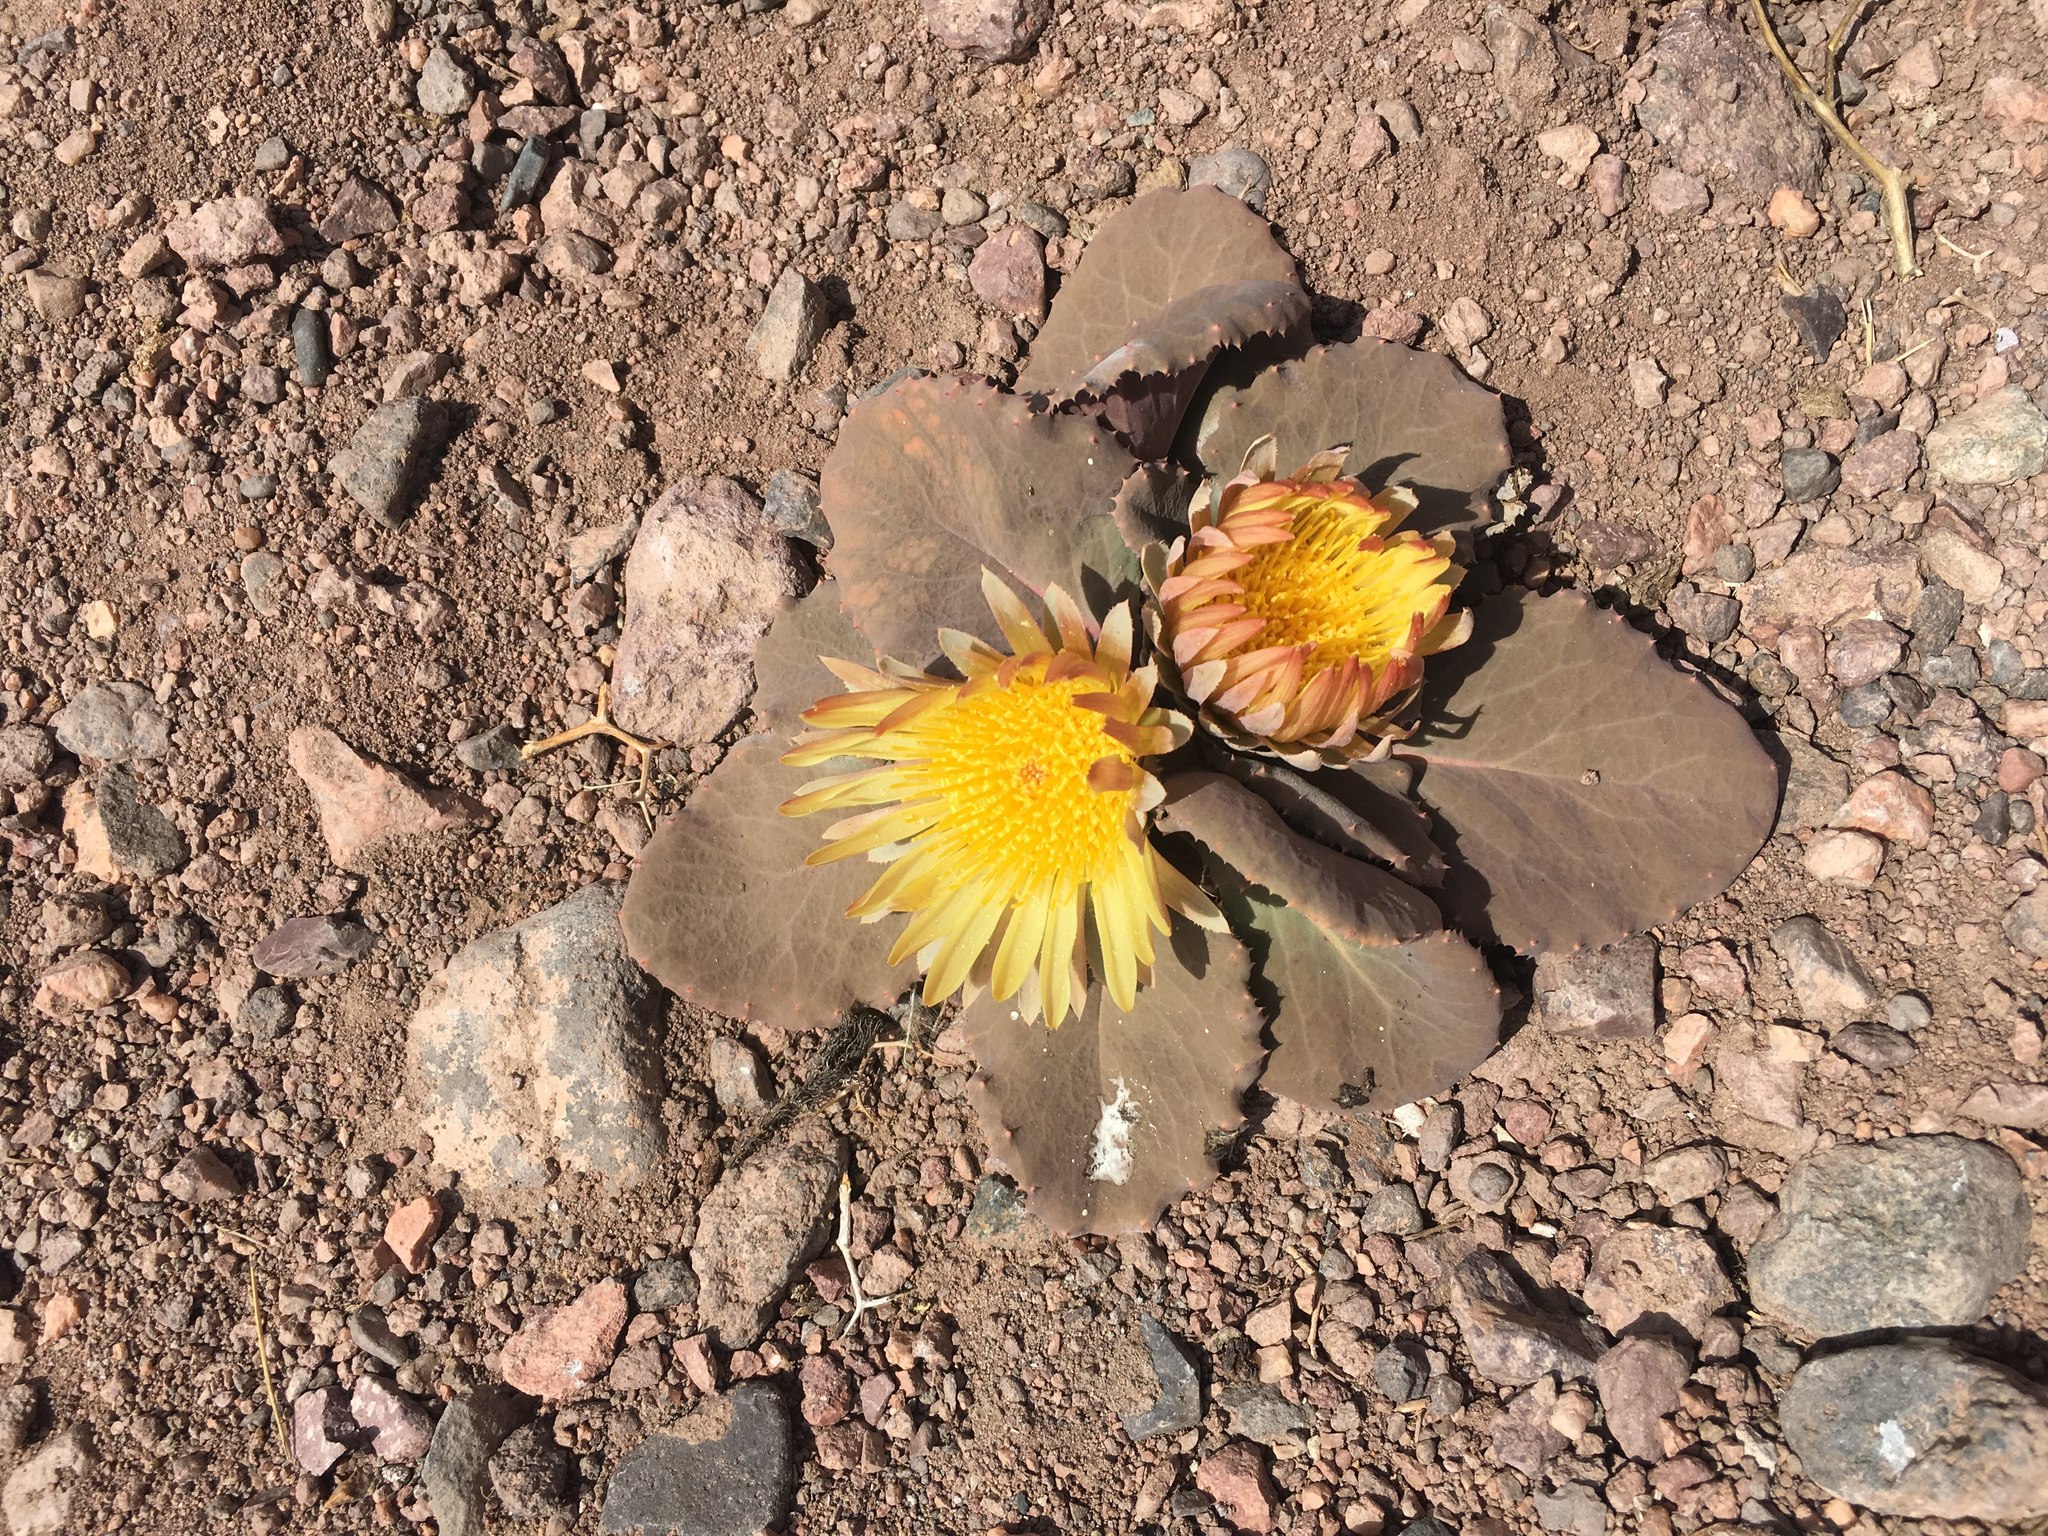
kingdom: Plantae
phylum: Tracheophyta
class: Magnoliopsida
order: Asterales
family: Asteraceae
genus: Pachylaena
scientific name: Pachylaena atriplicifolia
